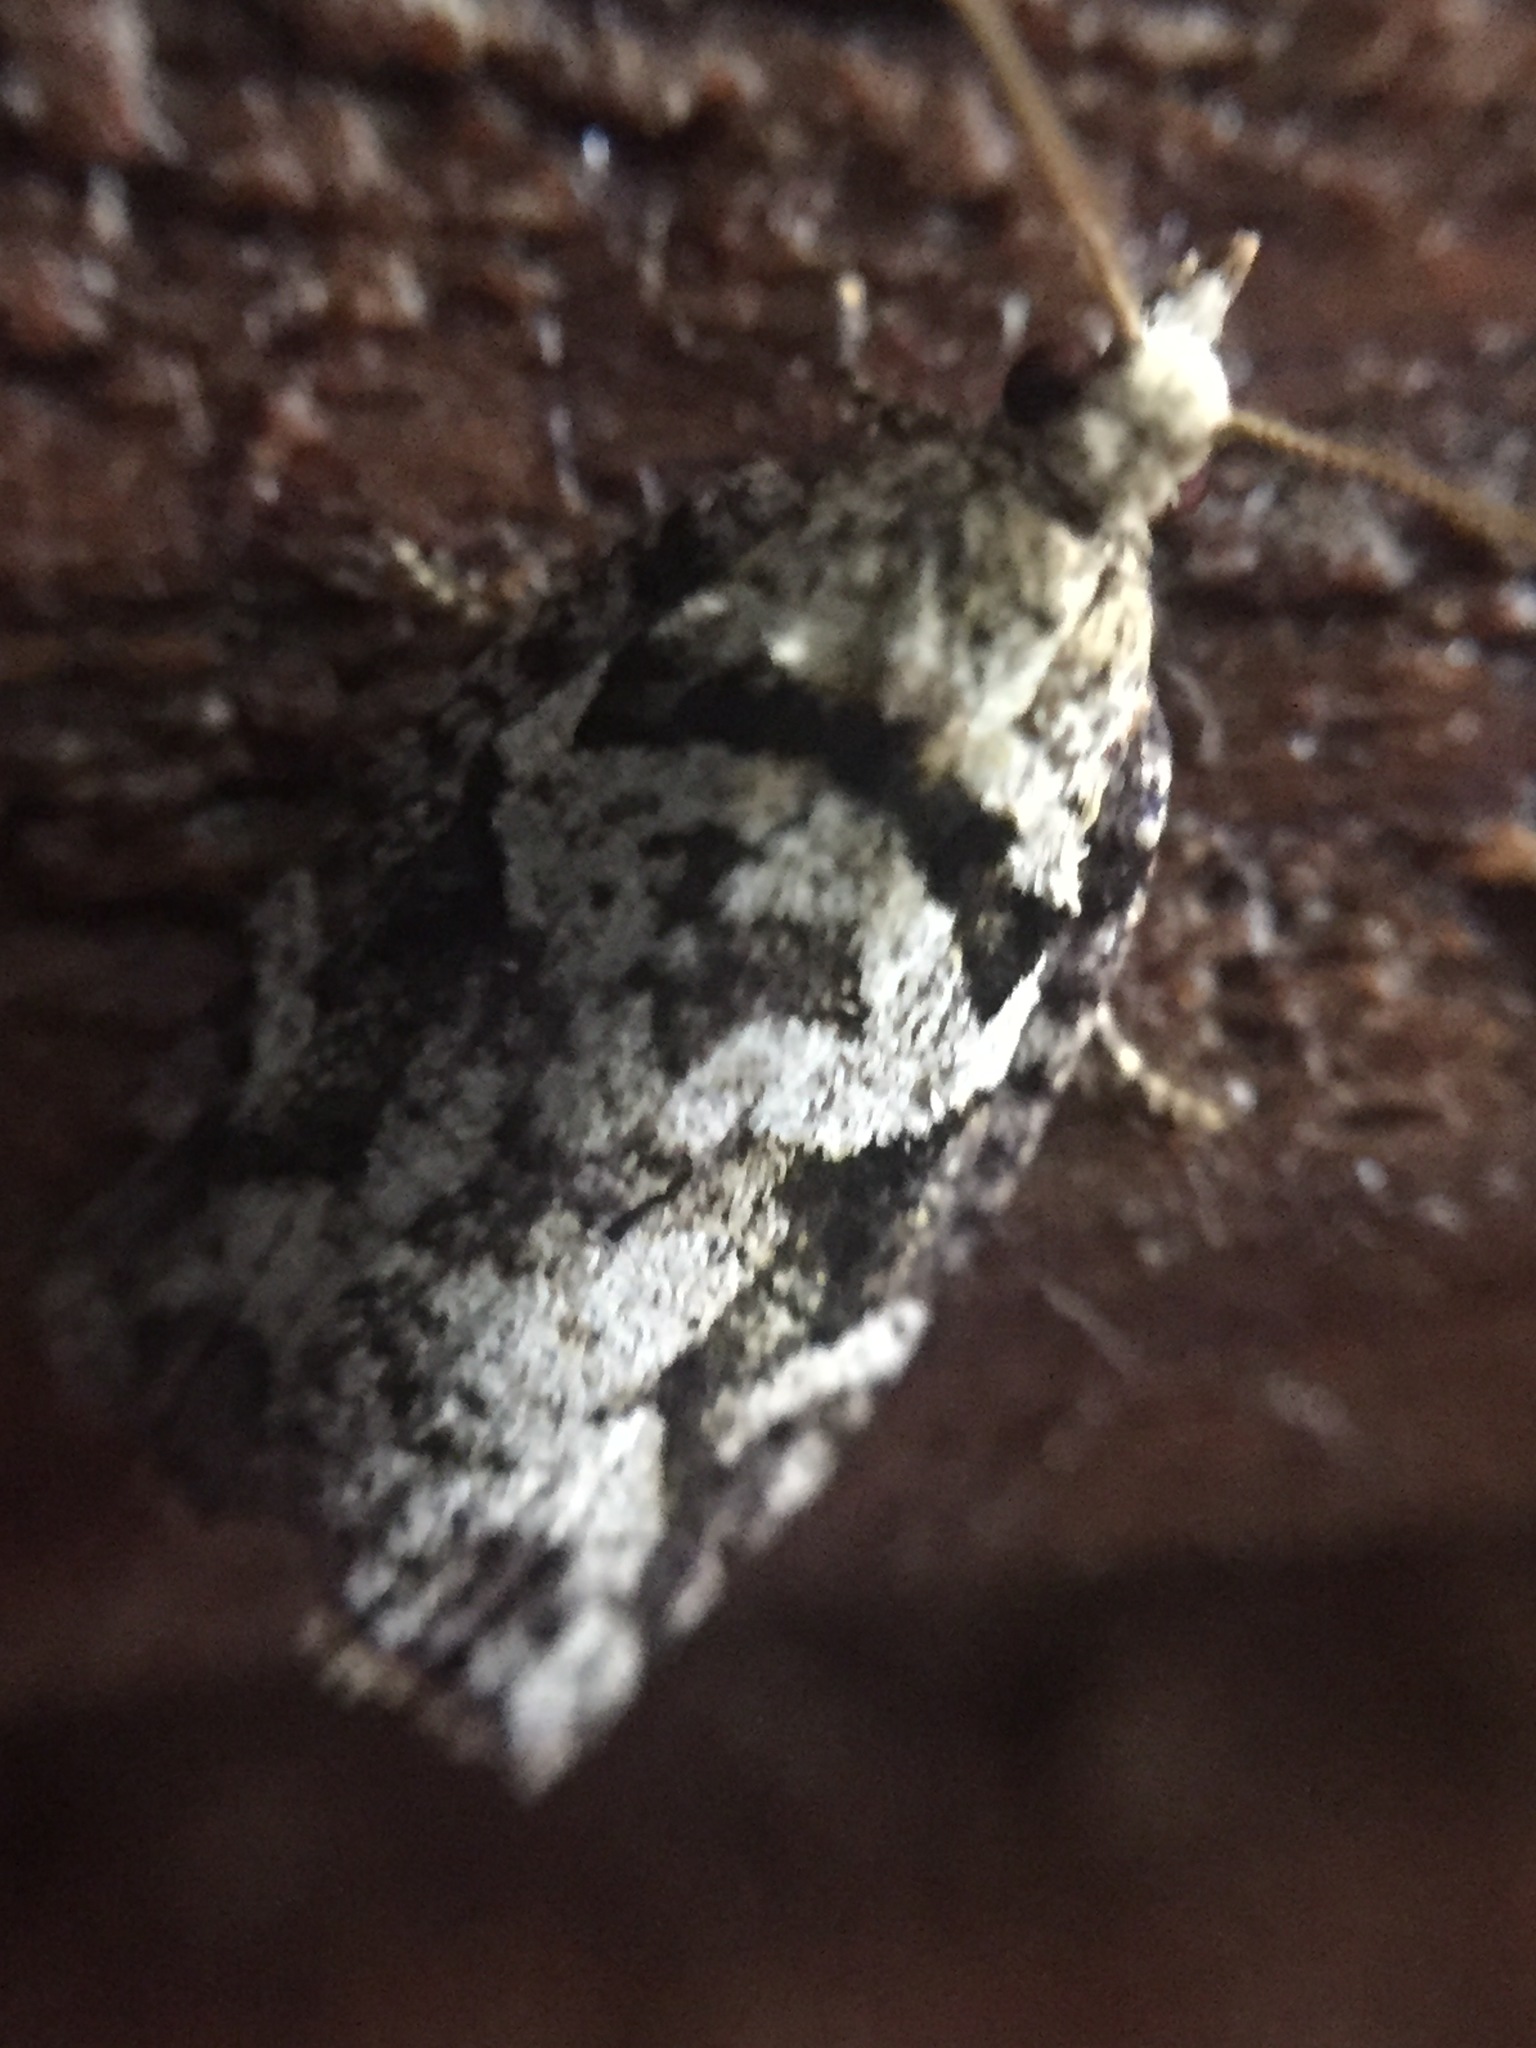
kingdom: Animalia
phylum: Arthropoda
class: Insecta
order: Lepidoptera
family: Tortricidae
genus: Ctenopseustis
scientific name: Ctenopseustis obliquana
